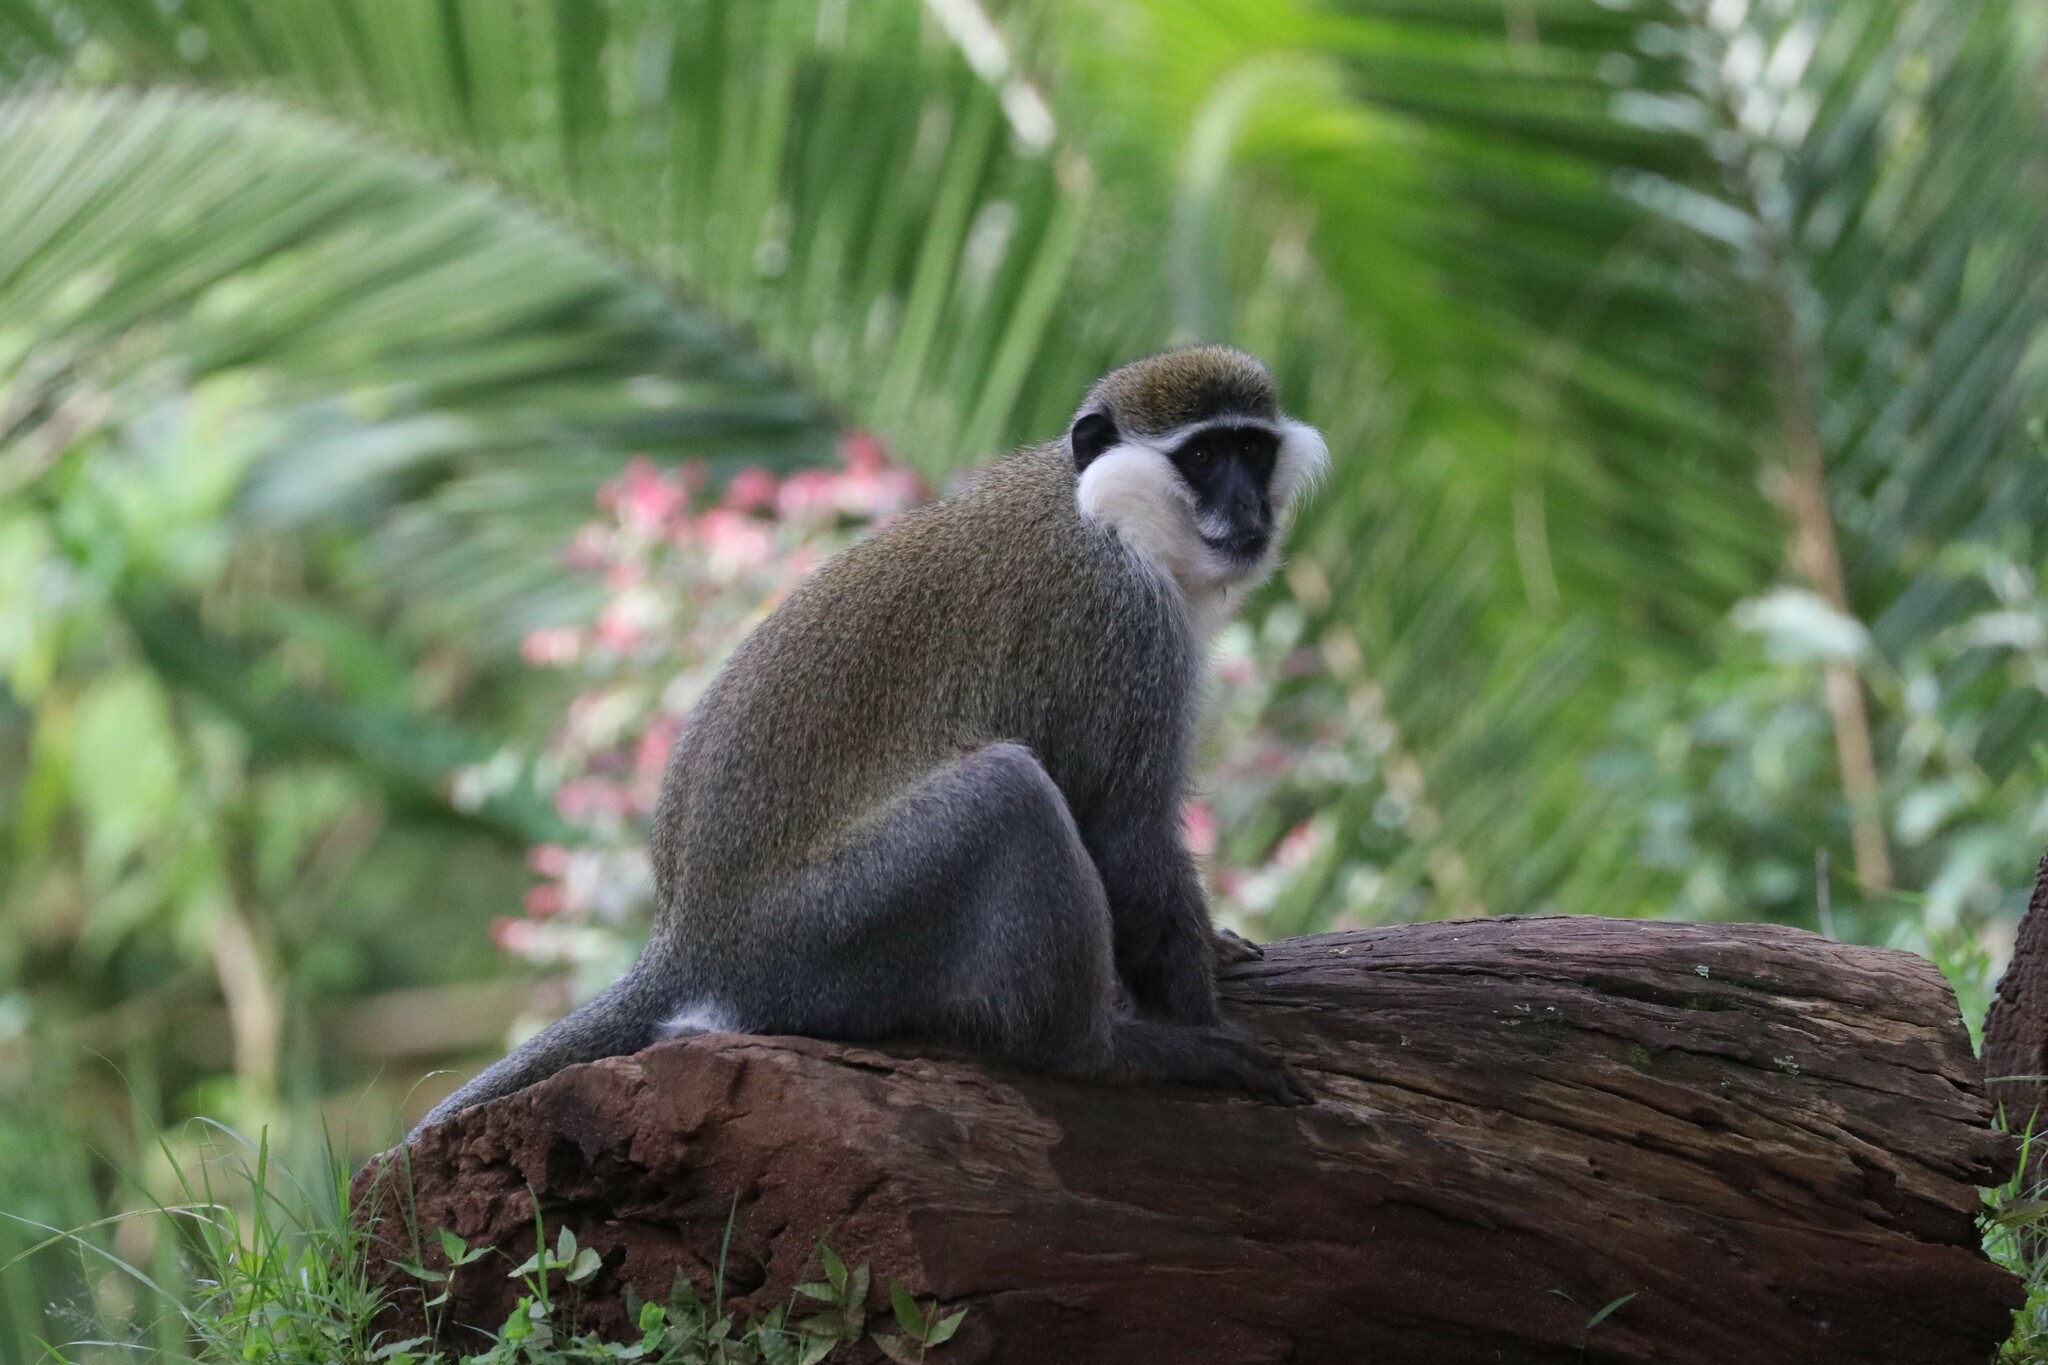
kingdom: Animalia
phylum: Chordata
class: Mammalia
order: Primates
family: Cercopithecidae
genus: Chlorocebus
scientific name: Chlorocebus aethiops
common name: Grivet
